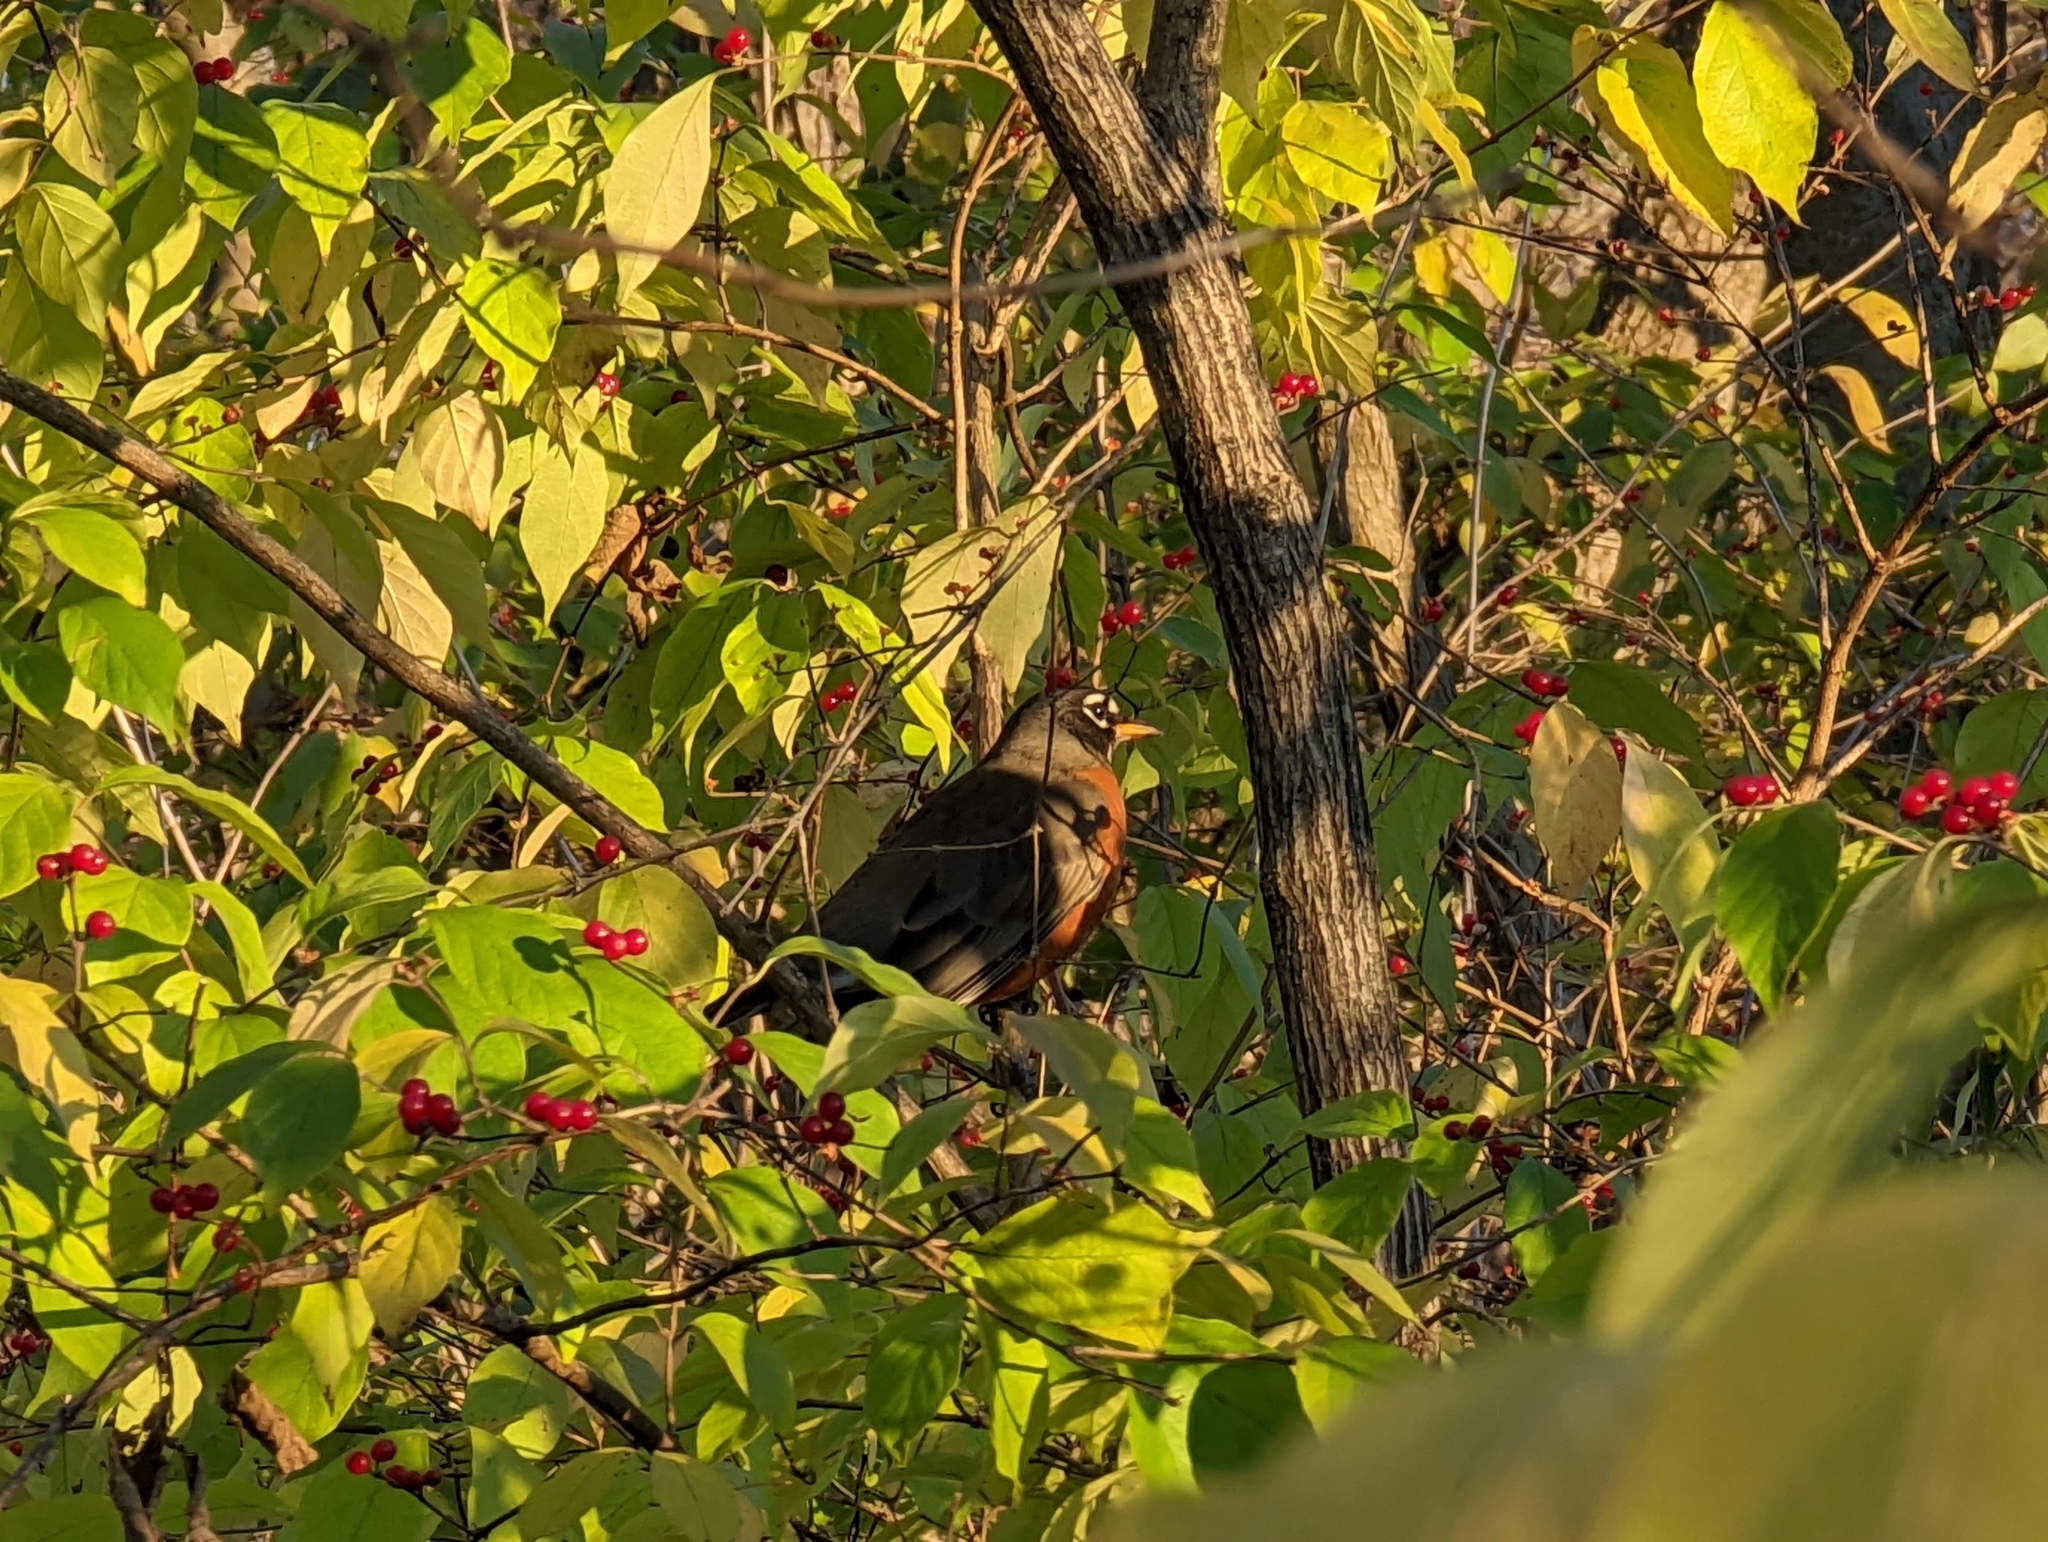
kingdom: Animalia
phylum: Chordata
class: Aves
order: Passeriformes
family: Turdidae
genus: Turdus
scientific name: Turdus migratorius
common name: American robin
